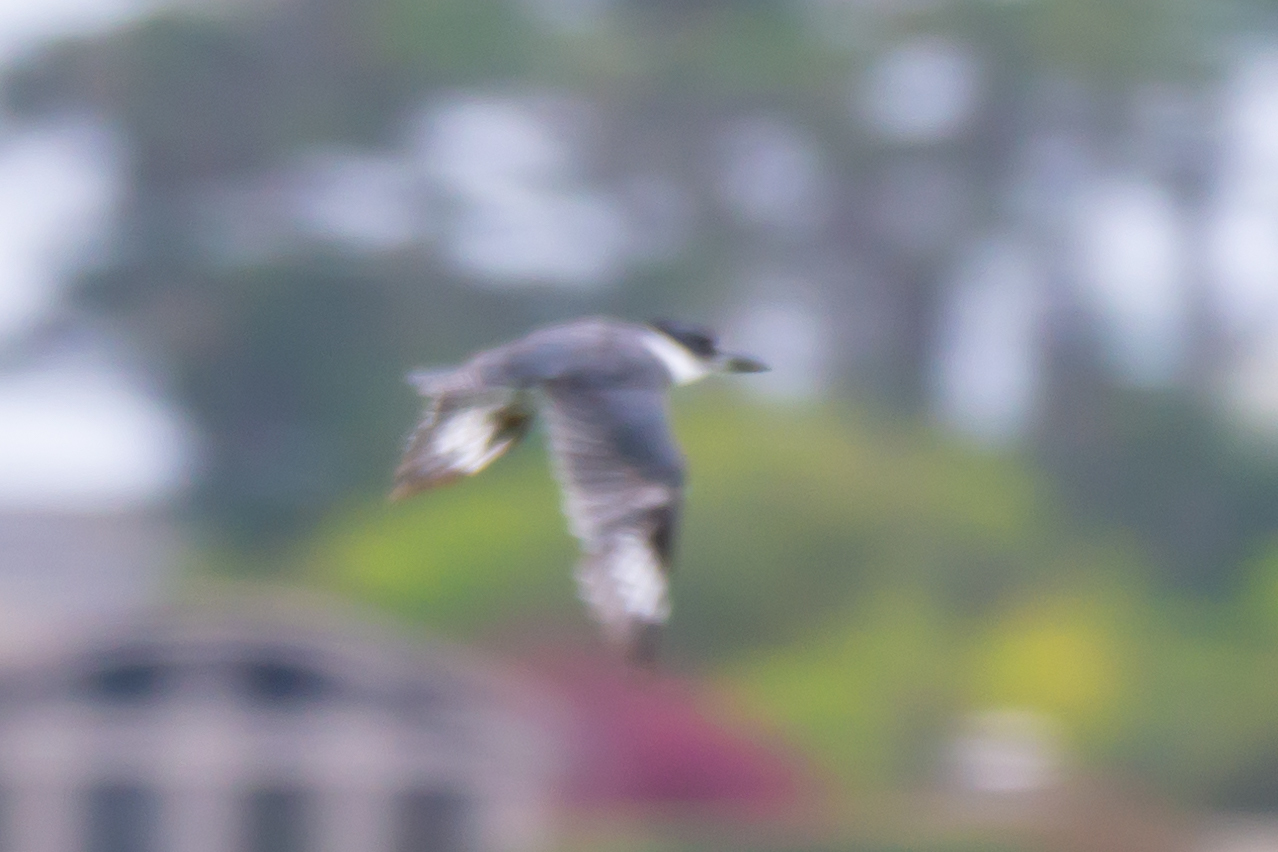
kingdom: Animalia
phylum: Chordata
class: Aves
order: Coraciiformes
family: Alcedinidae
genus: Megaceryle
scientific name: Megaceryle alcyon
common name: Belted kingfisher
